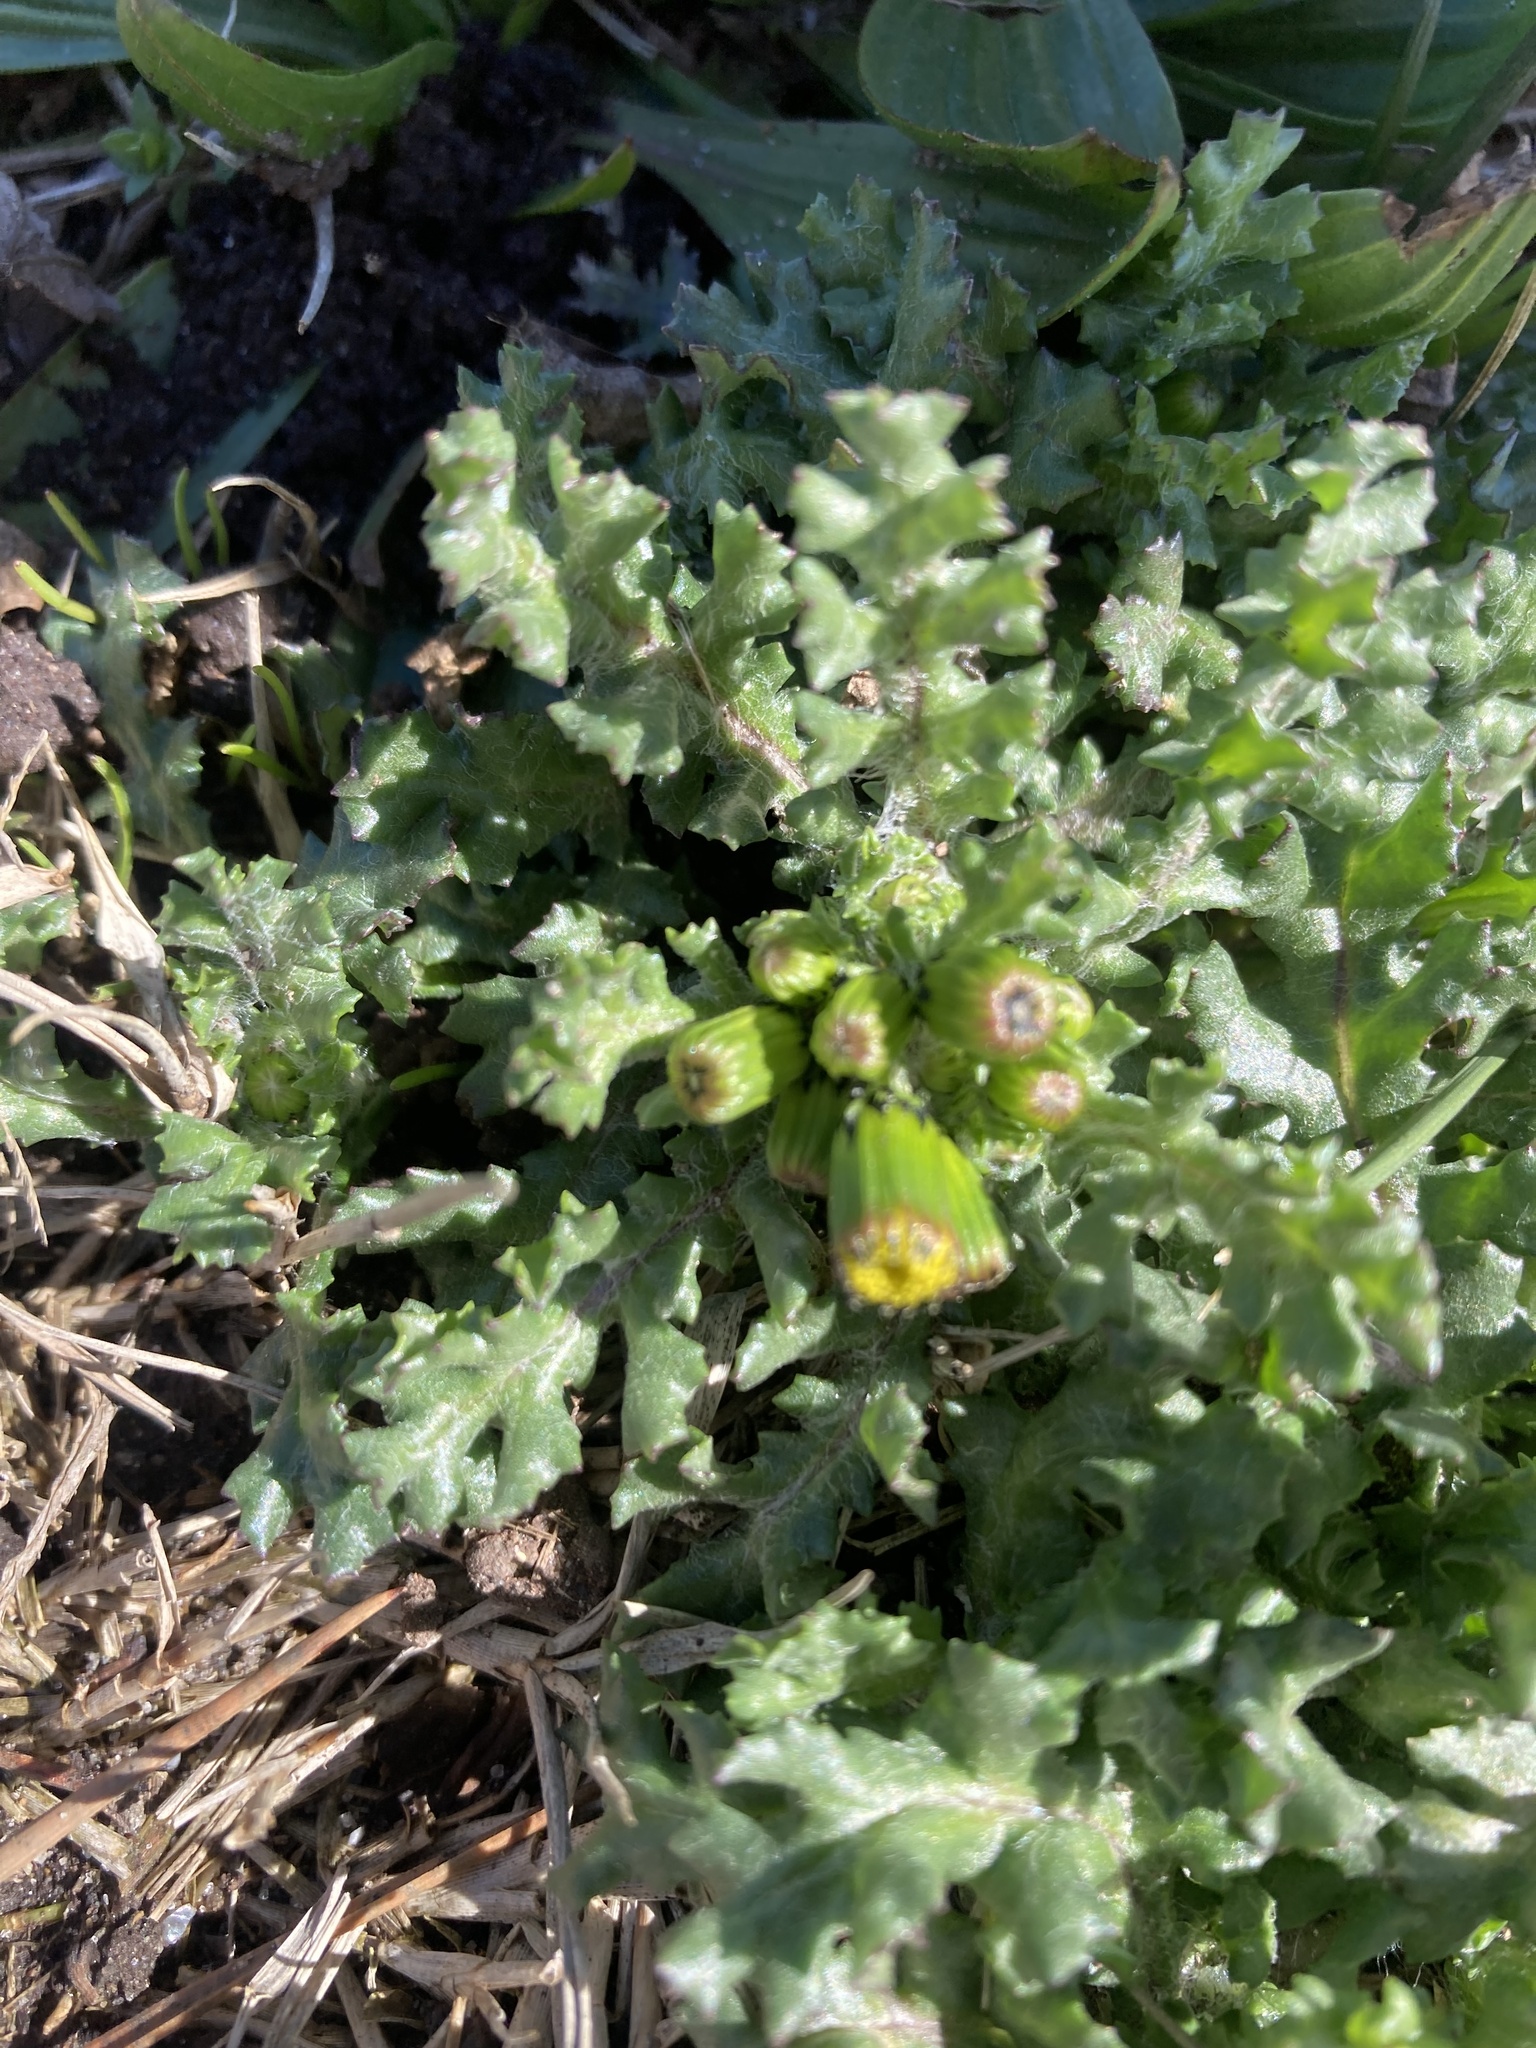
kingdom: Plantae
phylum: Tracheophyta
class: Magnoliopsida
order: Asterales
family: Asteraceae
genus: Senecio
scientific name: Senecio vulgaris
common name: Old-man-in-the-spring
